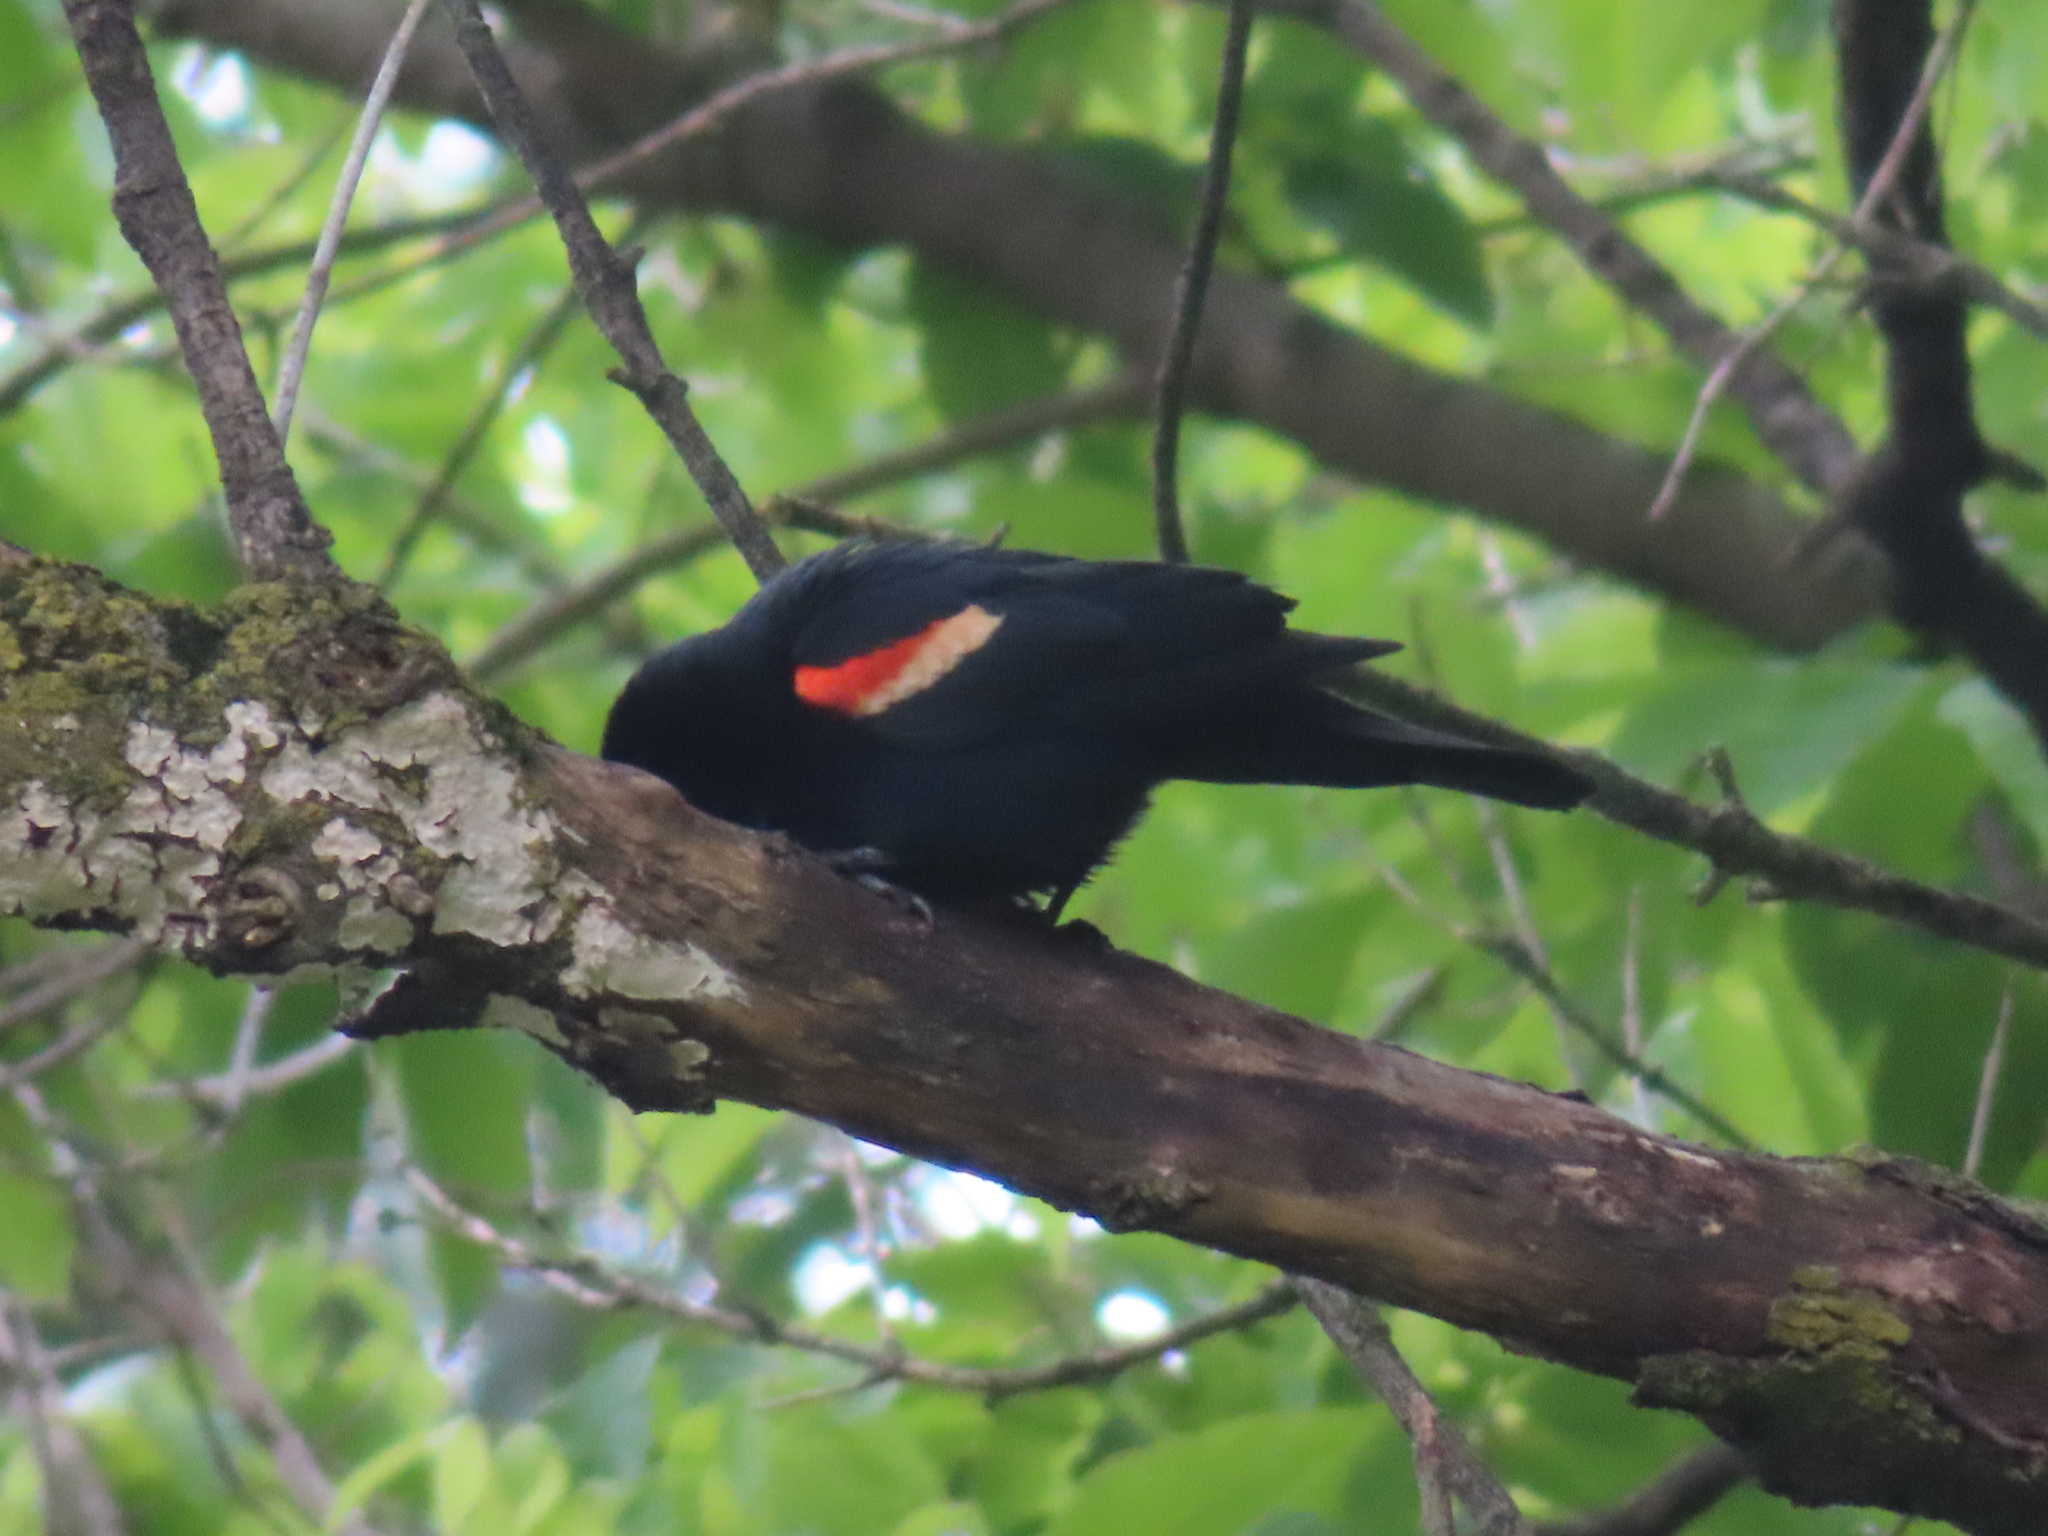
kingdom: Animalia
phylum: Chordata
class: Aves
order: Passeriformes
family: Icteridae
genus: Agelaius
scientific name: Agelaius phoeniceus
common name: Red-winged blackbird
